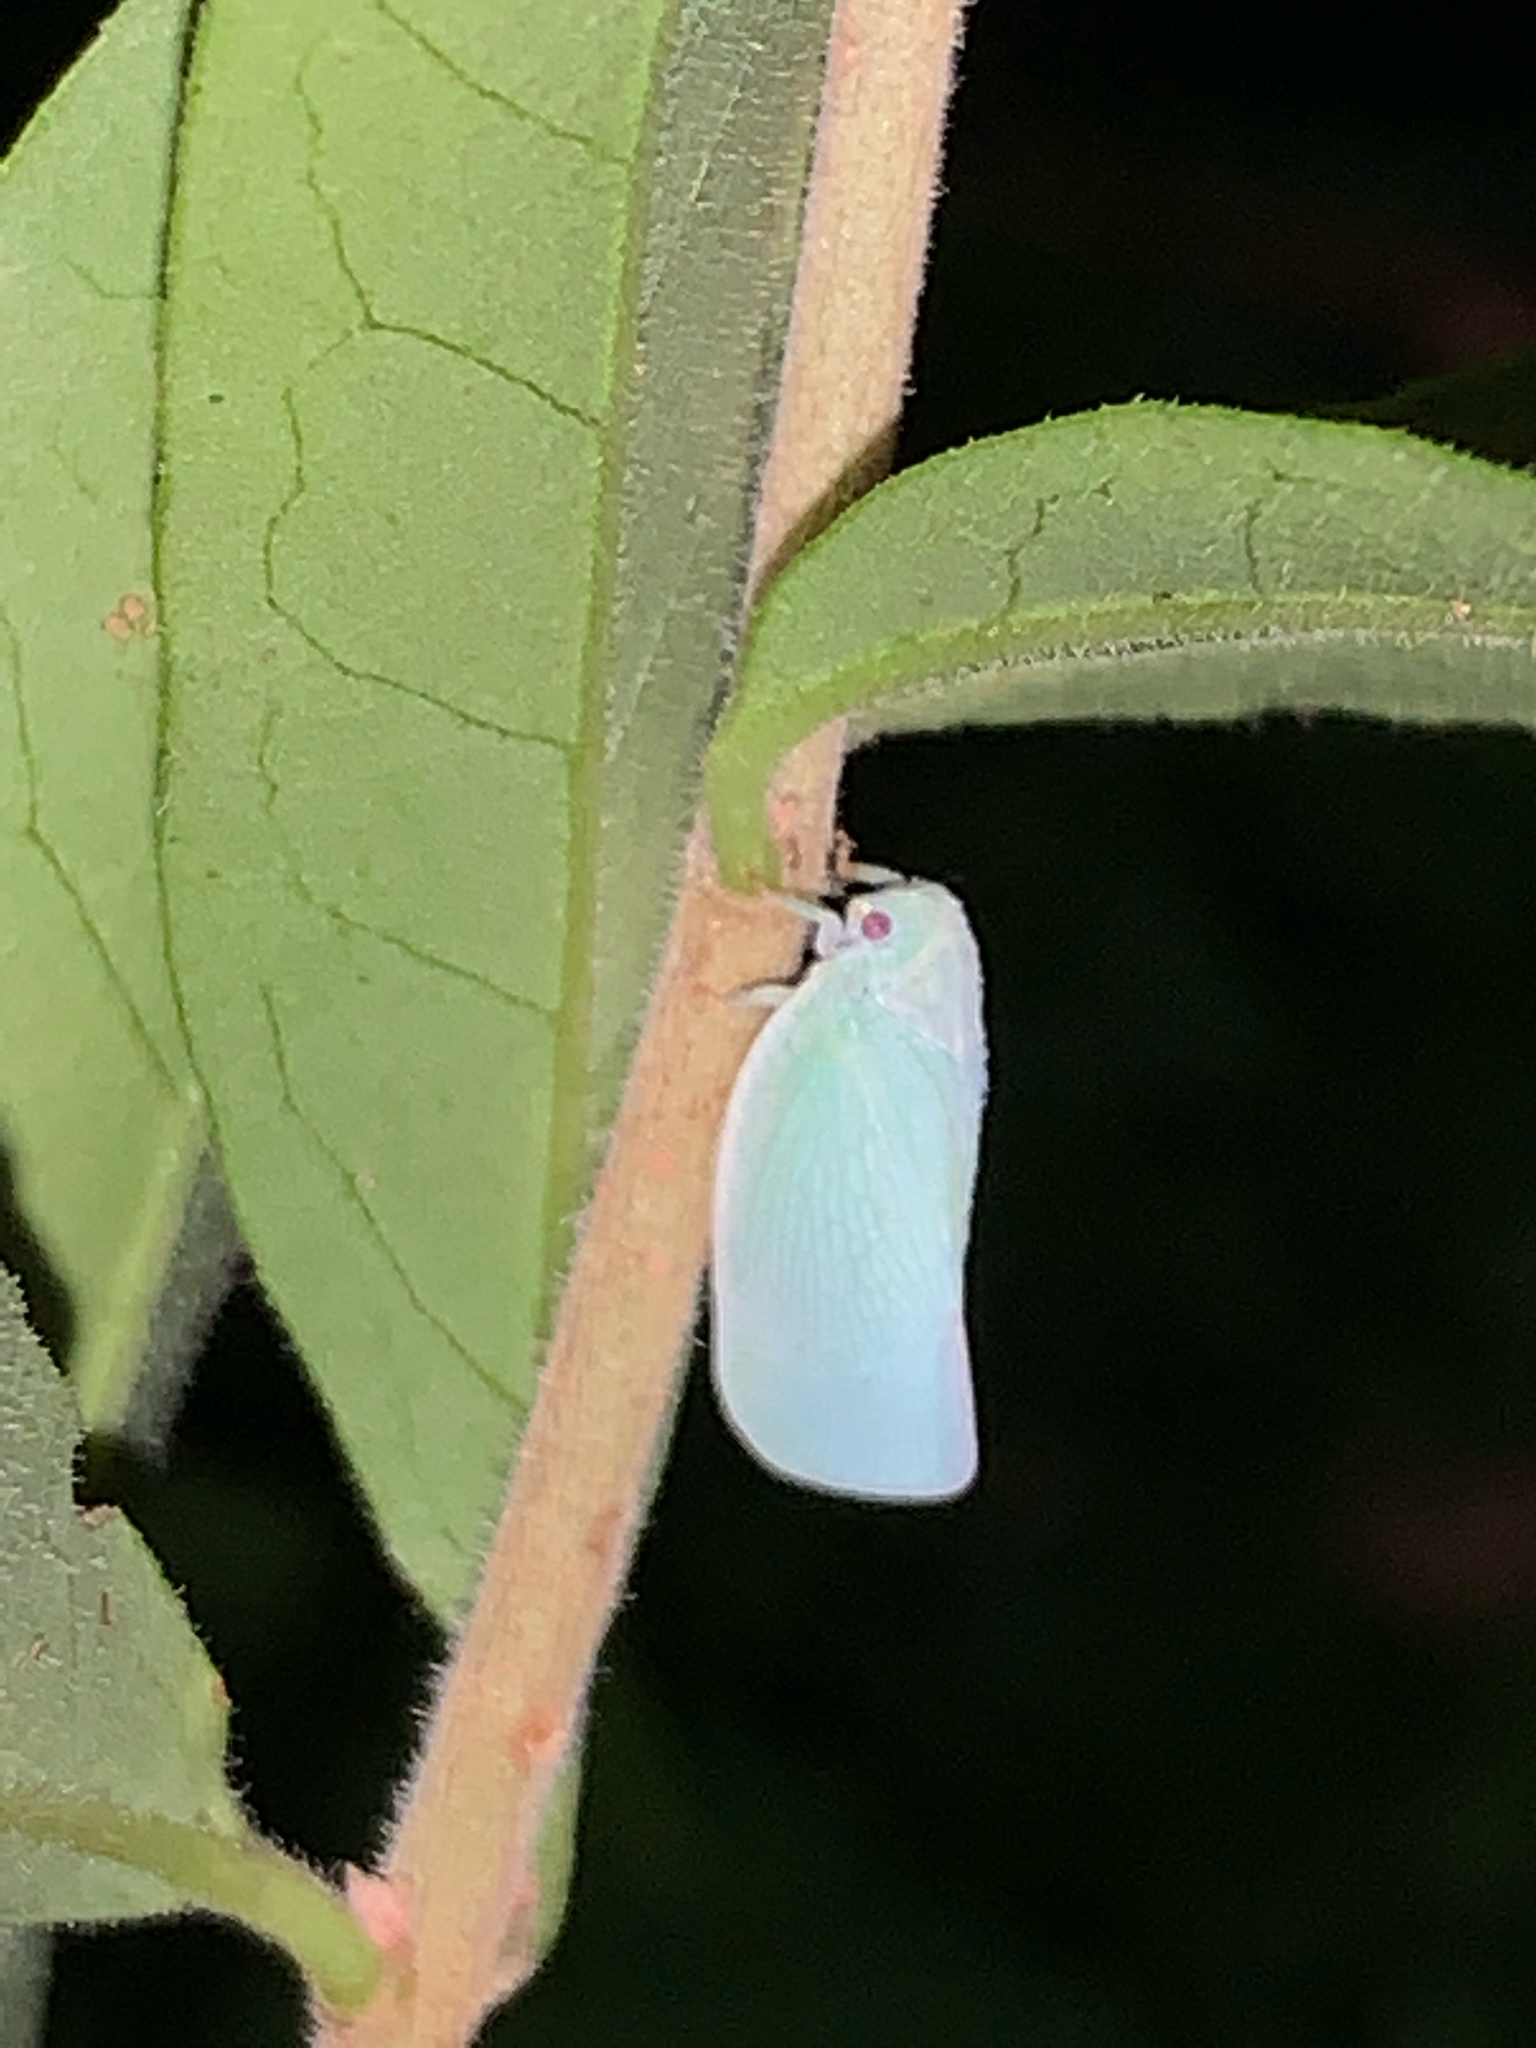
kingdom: Animalia
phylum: Arthropoda
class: Insecta
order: Hemiptera
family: Flatidae
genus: Flatormenis
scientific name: Flatormenis proxima
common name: Northern flatid planthopper
